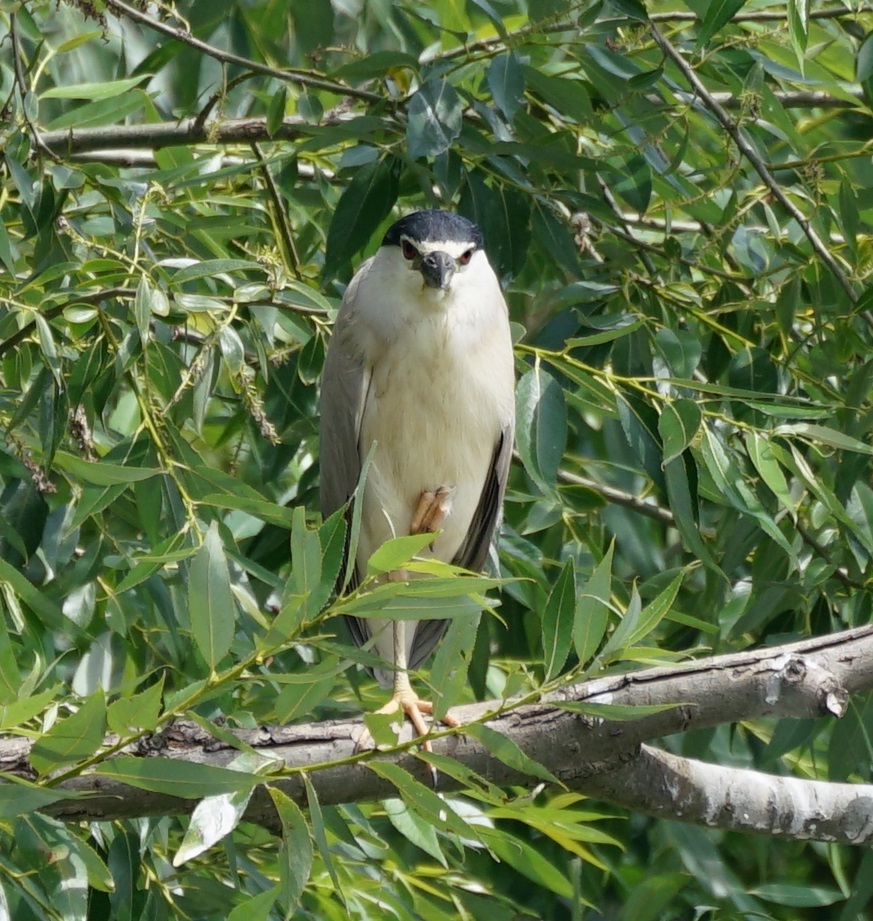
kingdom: Animalia
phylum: Chordata
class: Aves
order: Pelecaniformes
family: Ardeidae
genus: Nycticorax
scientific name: Nycticorax nycticorax
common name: Black-crowned night heron
